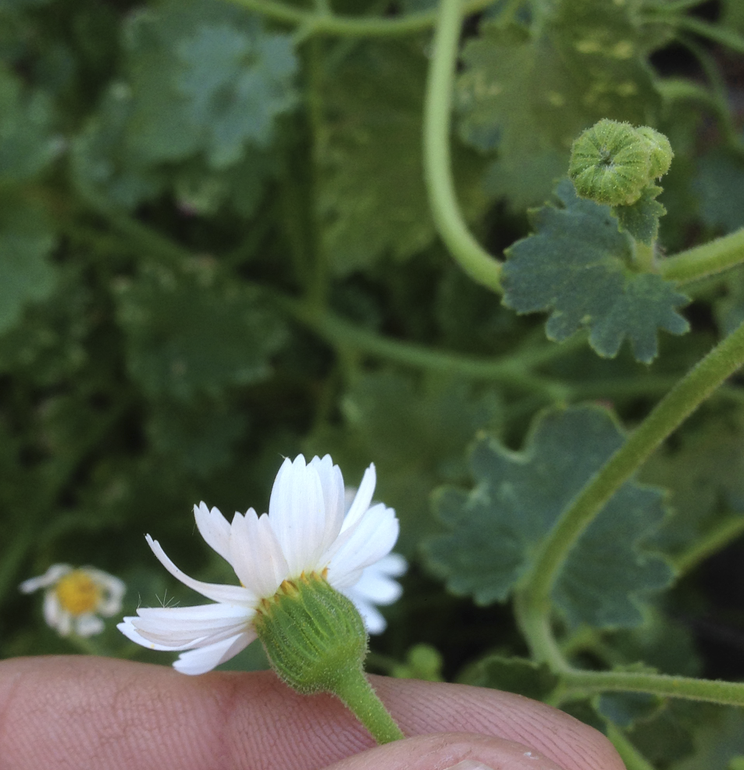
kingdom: Plantae
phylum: Tracheophyta
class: Magnoliopsida
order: Asterales
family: Asteraceae
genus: Perityle
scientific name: Perityle brandegeeana
